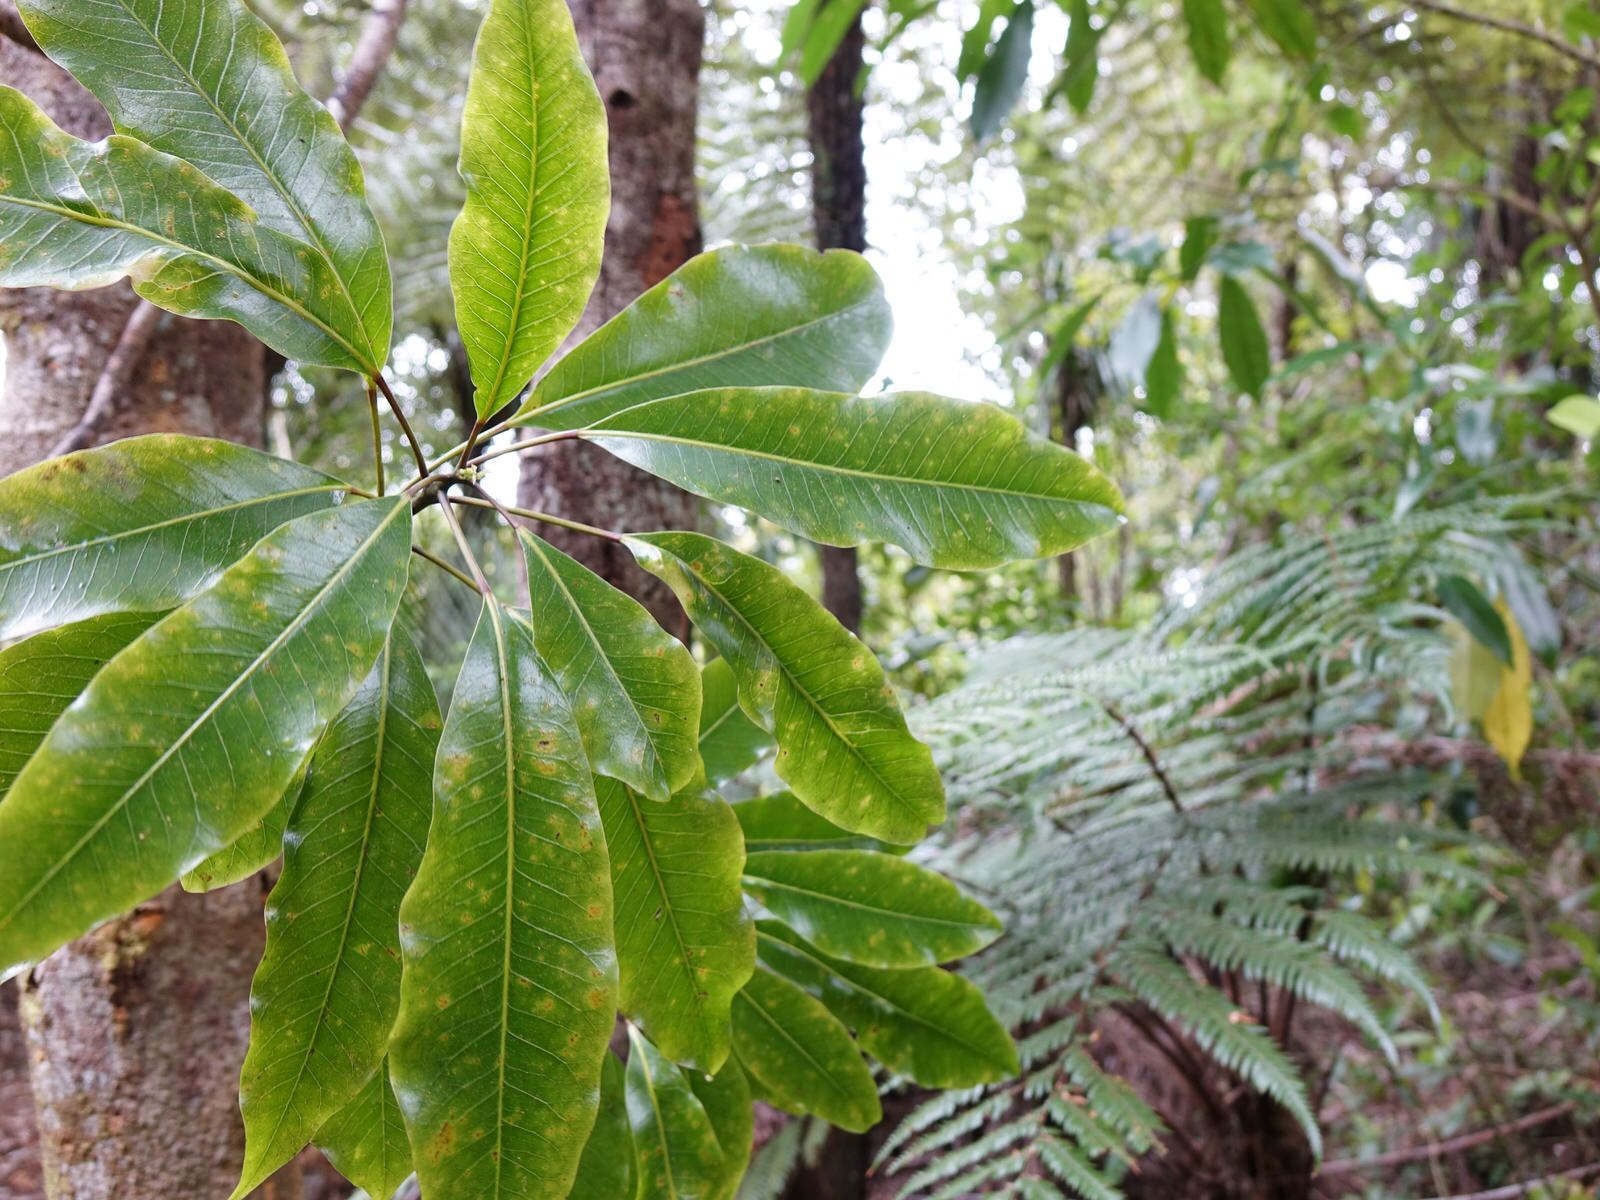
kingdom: Plantae
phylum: Tracheophyta
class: Magnoliopsida
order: Apiales
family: Araliaceae
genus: Raukaua
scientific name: Raukaua edgerleyi
